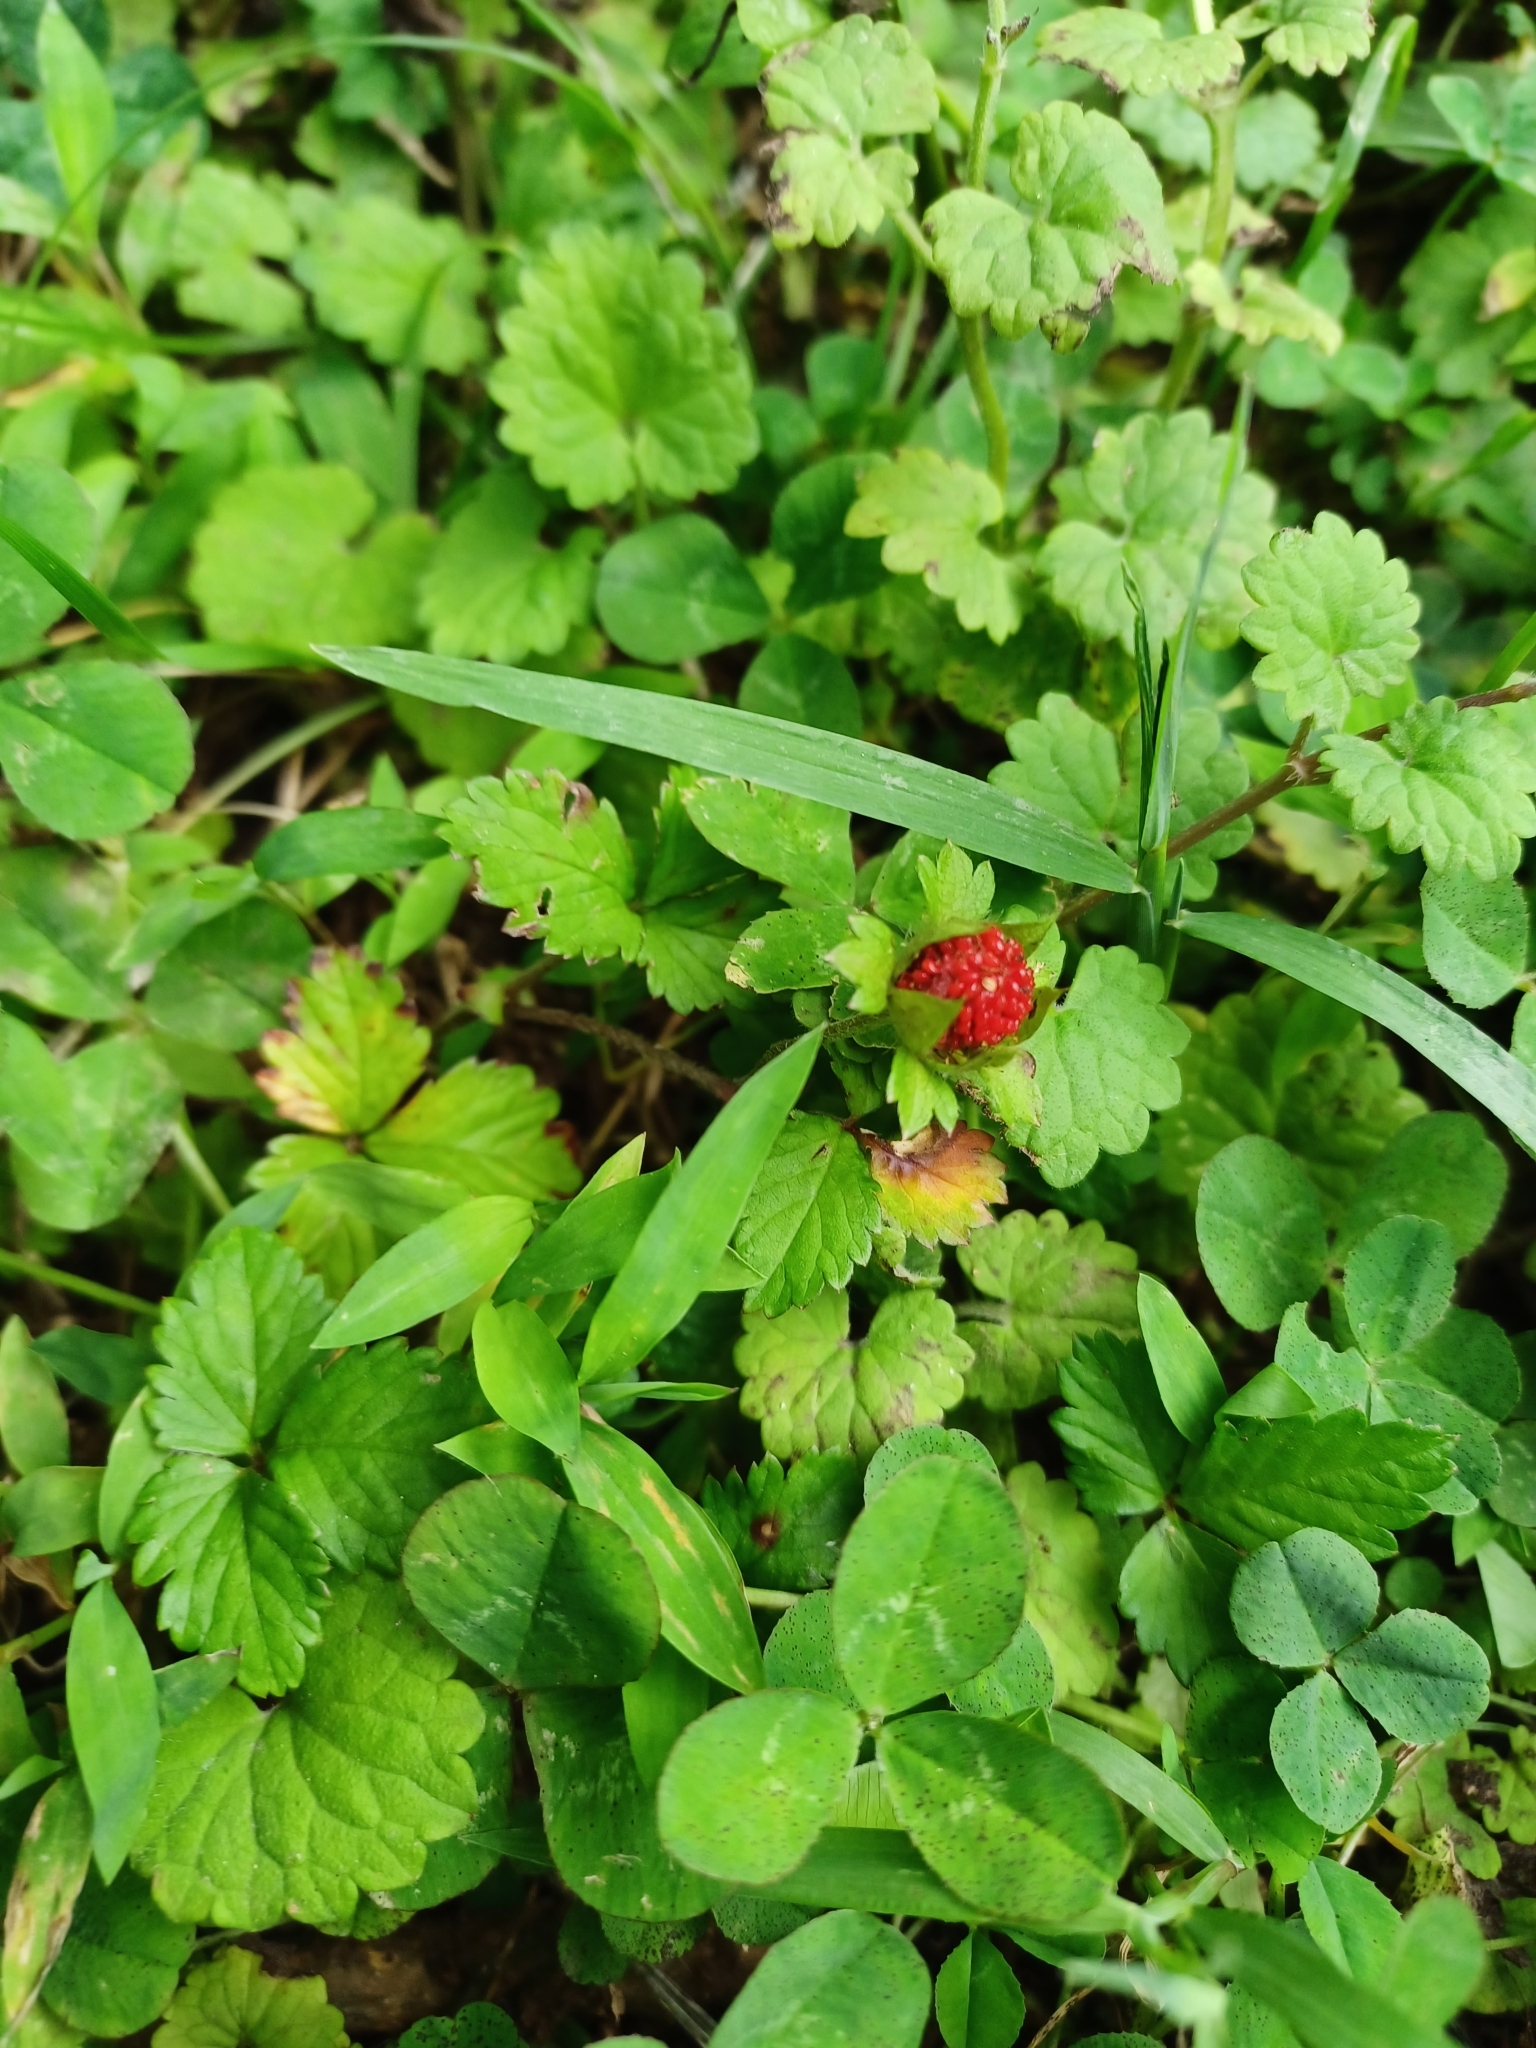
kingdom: Plantae
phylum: Tracheophyta
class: Magnoliopsida
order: Rosales
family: Rosaceae
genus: Potentilla
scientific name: Potentilla indica
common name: Yellow-flowered strawberry
